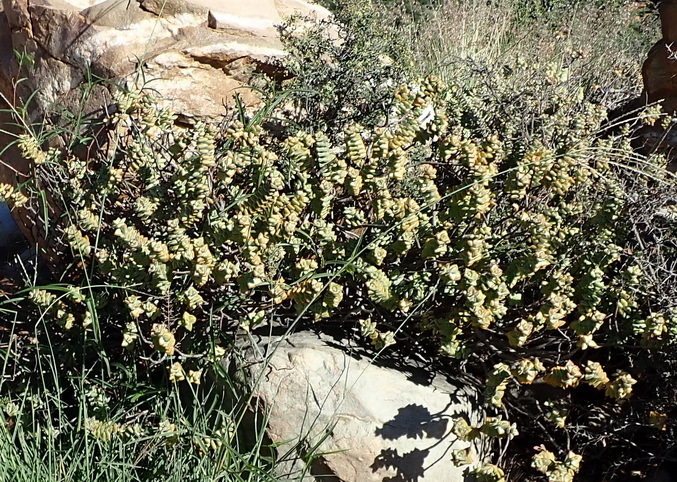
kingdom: Plantae
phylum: Tracheophyta
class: Magnoliopsida
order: Saxifragales
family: Crassulaceae
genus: Crassula
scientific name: Crassula rupestris
